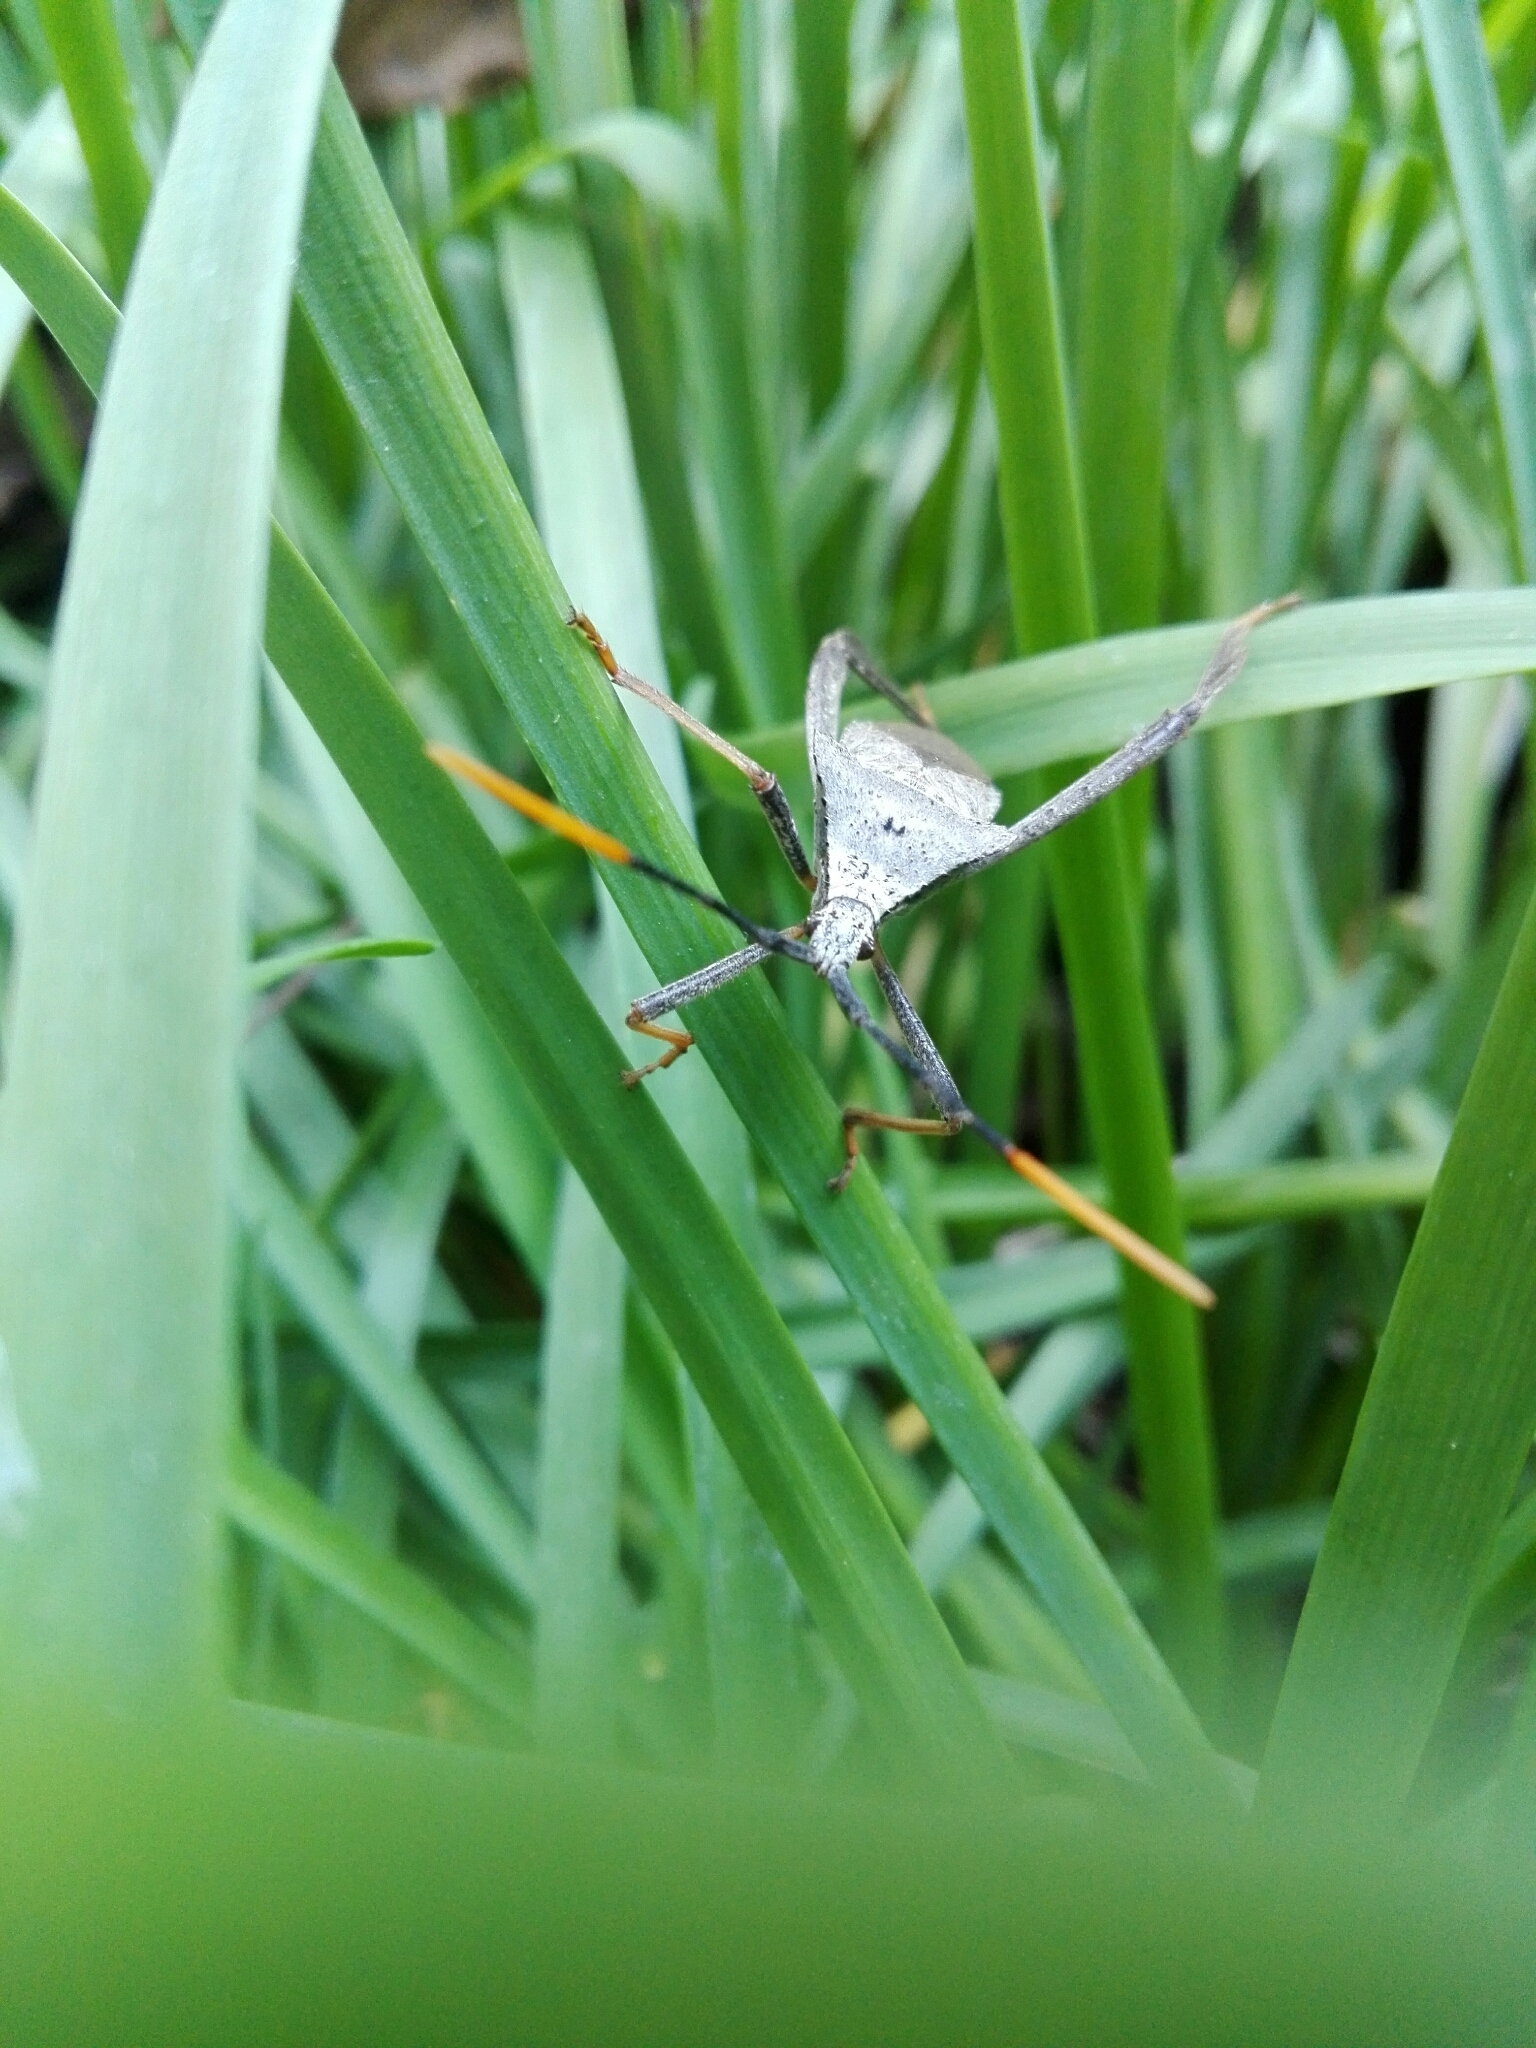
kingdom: Animalia
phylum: Arthropoda
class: Insecta
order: Hemiptera
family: Coreidae
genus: Acanthocephala
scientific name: Acanthocephala alata
